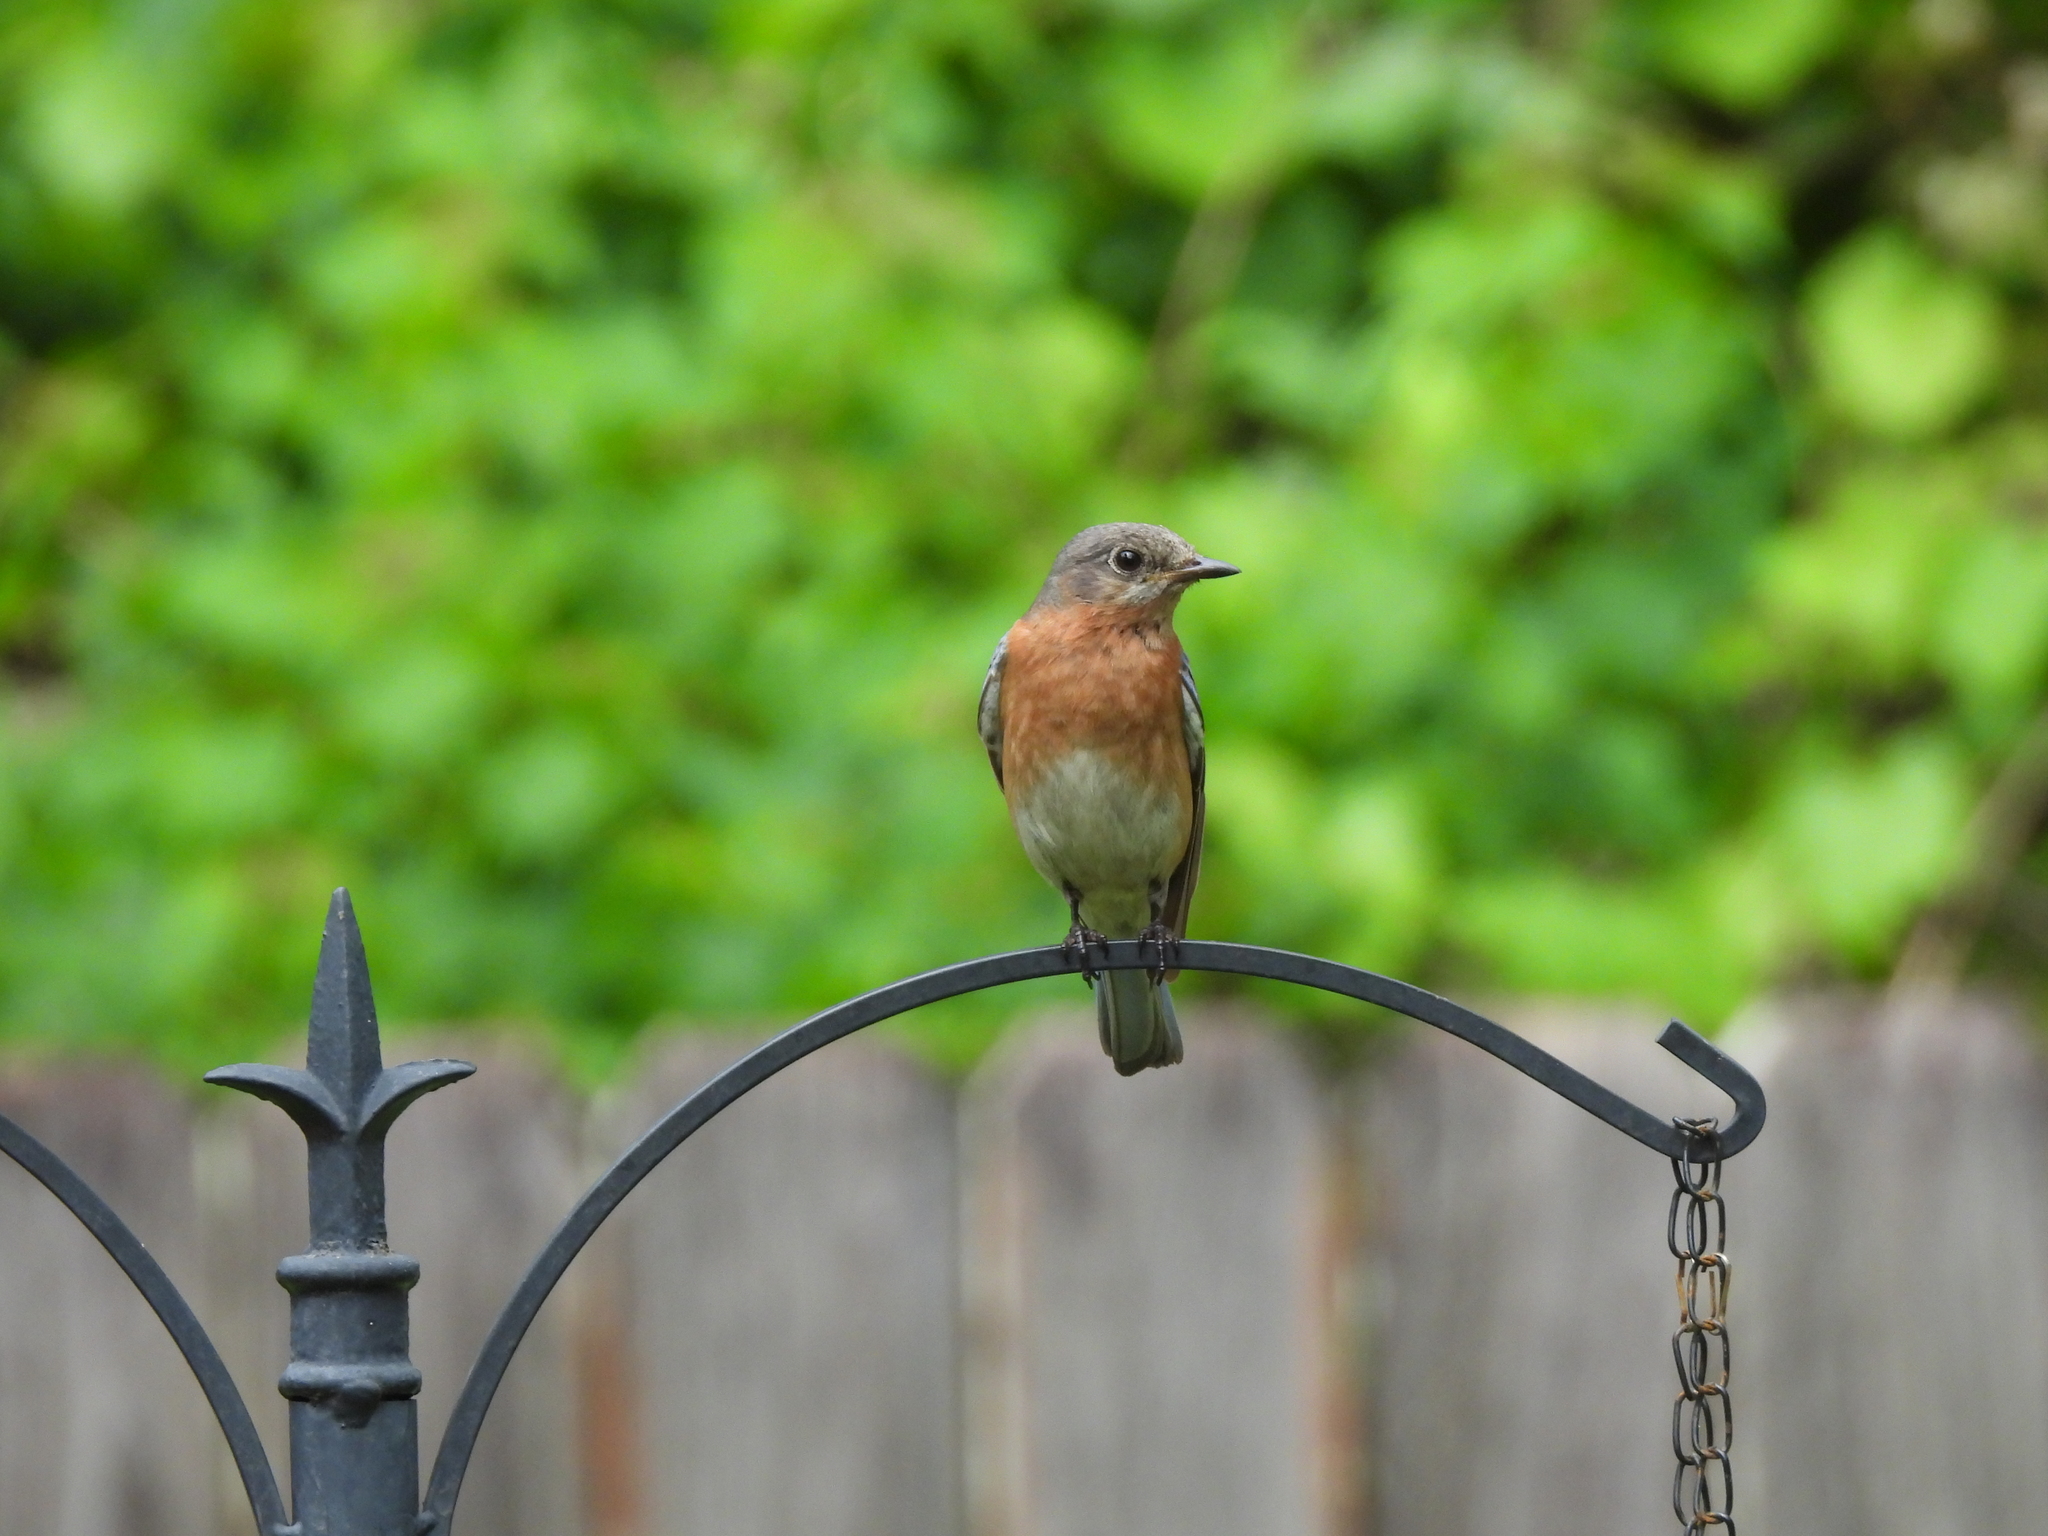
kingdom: Animalia
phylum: Chordata
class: Aves
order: Passeriformes
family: Turdidae
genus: Sialia
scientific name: Sialia sialis
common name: Eastern bluebird
